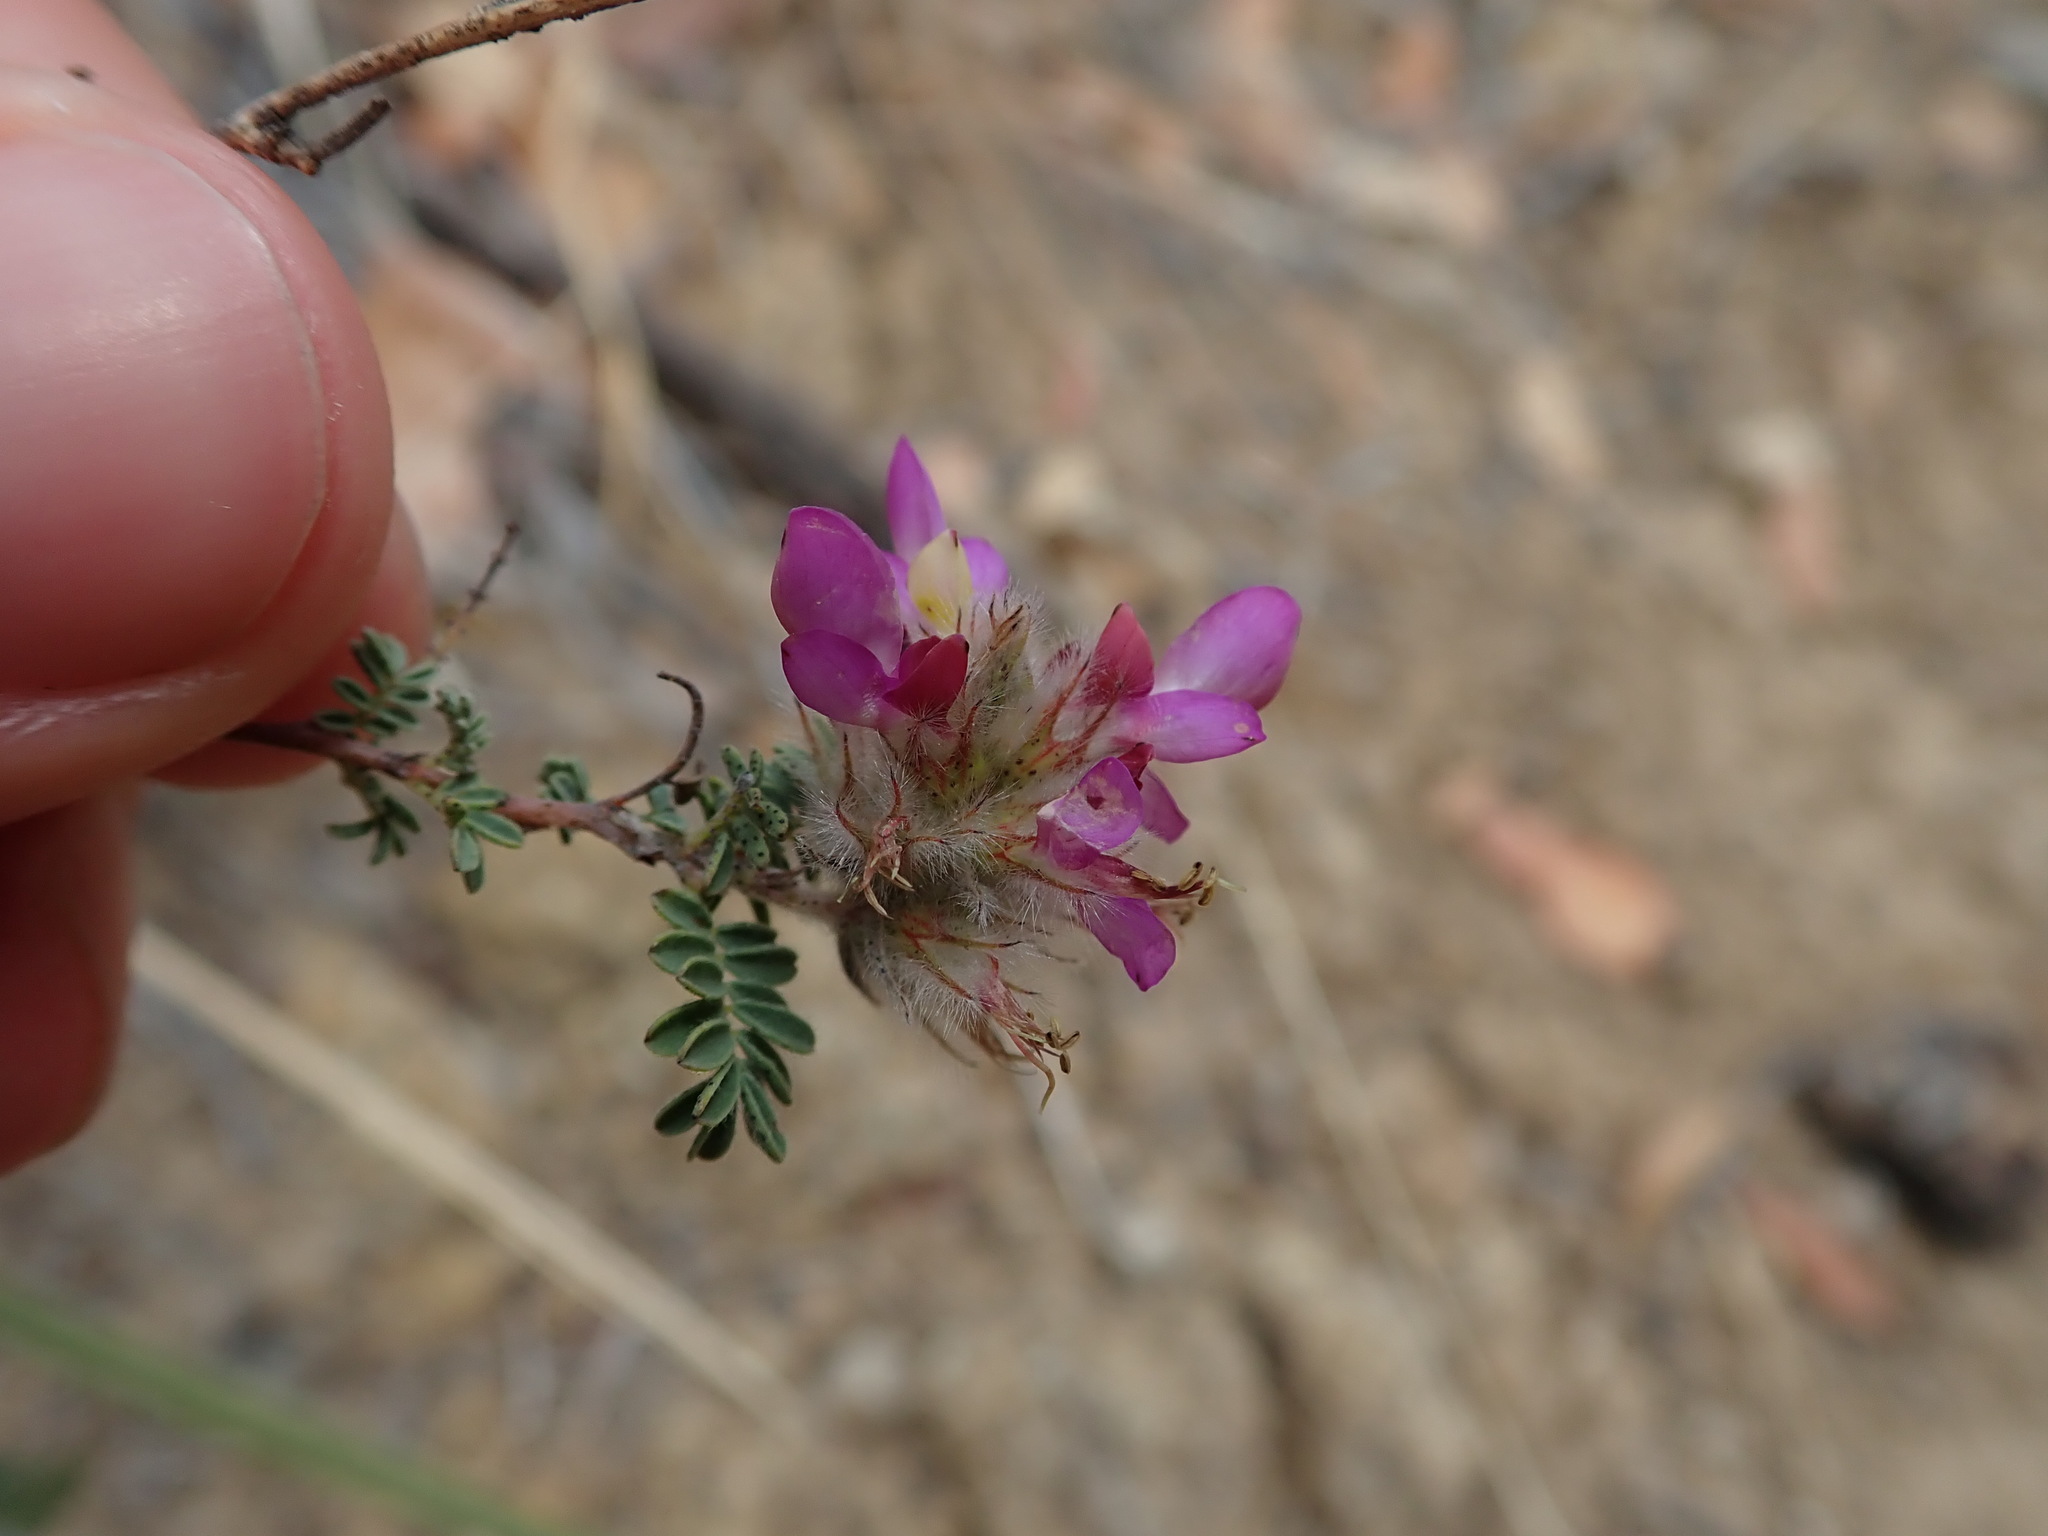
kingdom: Plantae
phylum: Tracheophyta
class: Magnoliopsida
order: Fabales
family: Fabaceae
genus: Dalea
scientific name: Dalea versicolor
